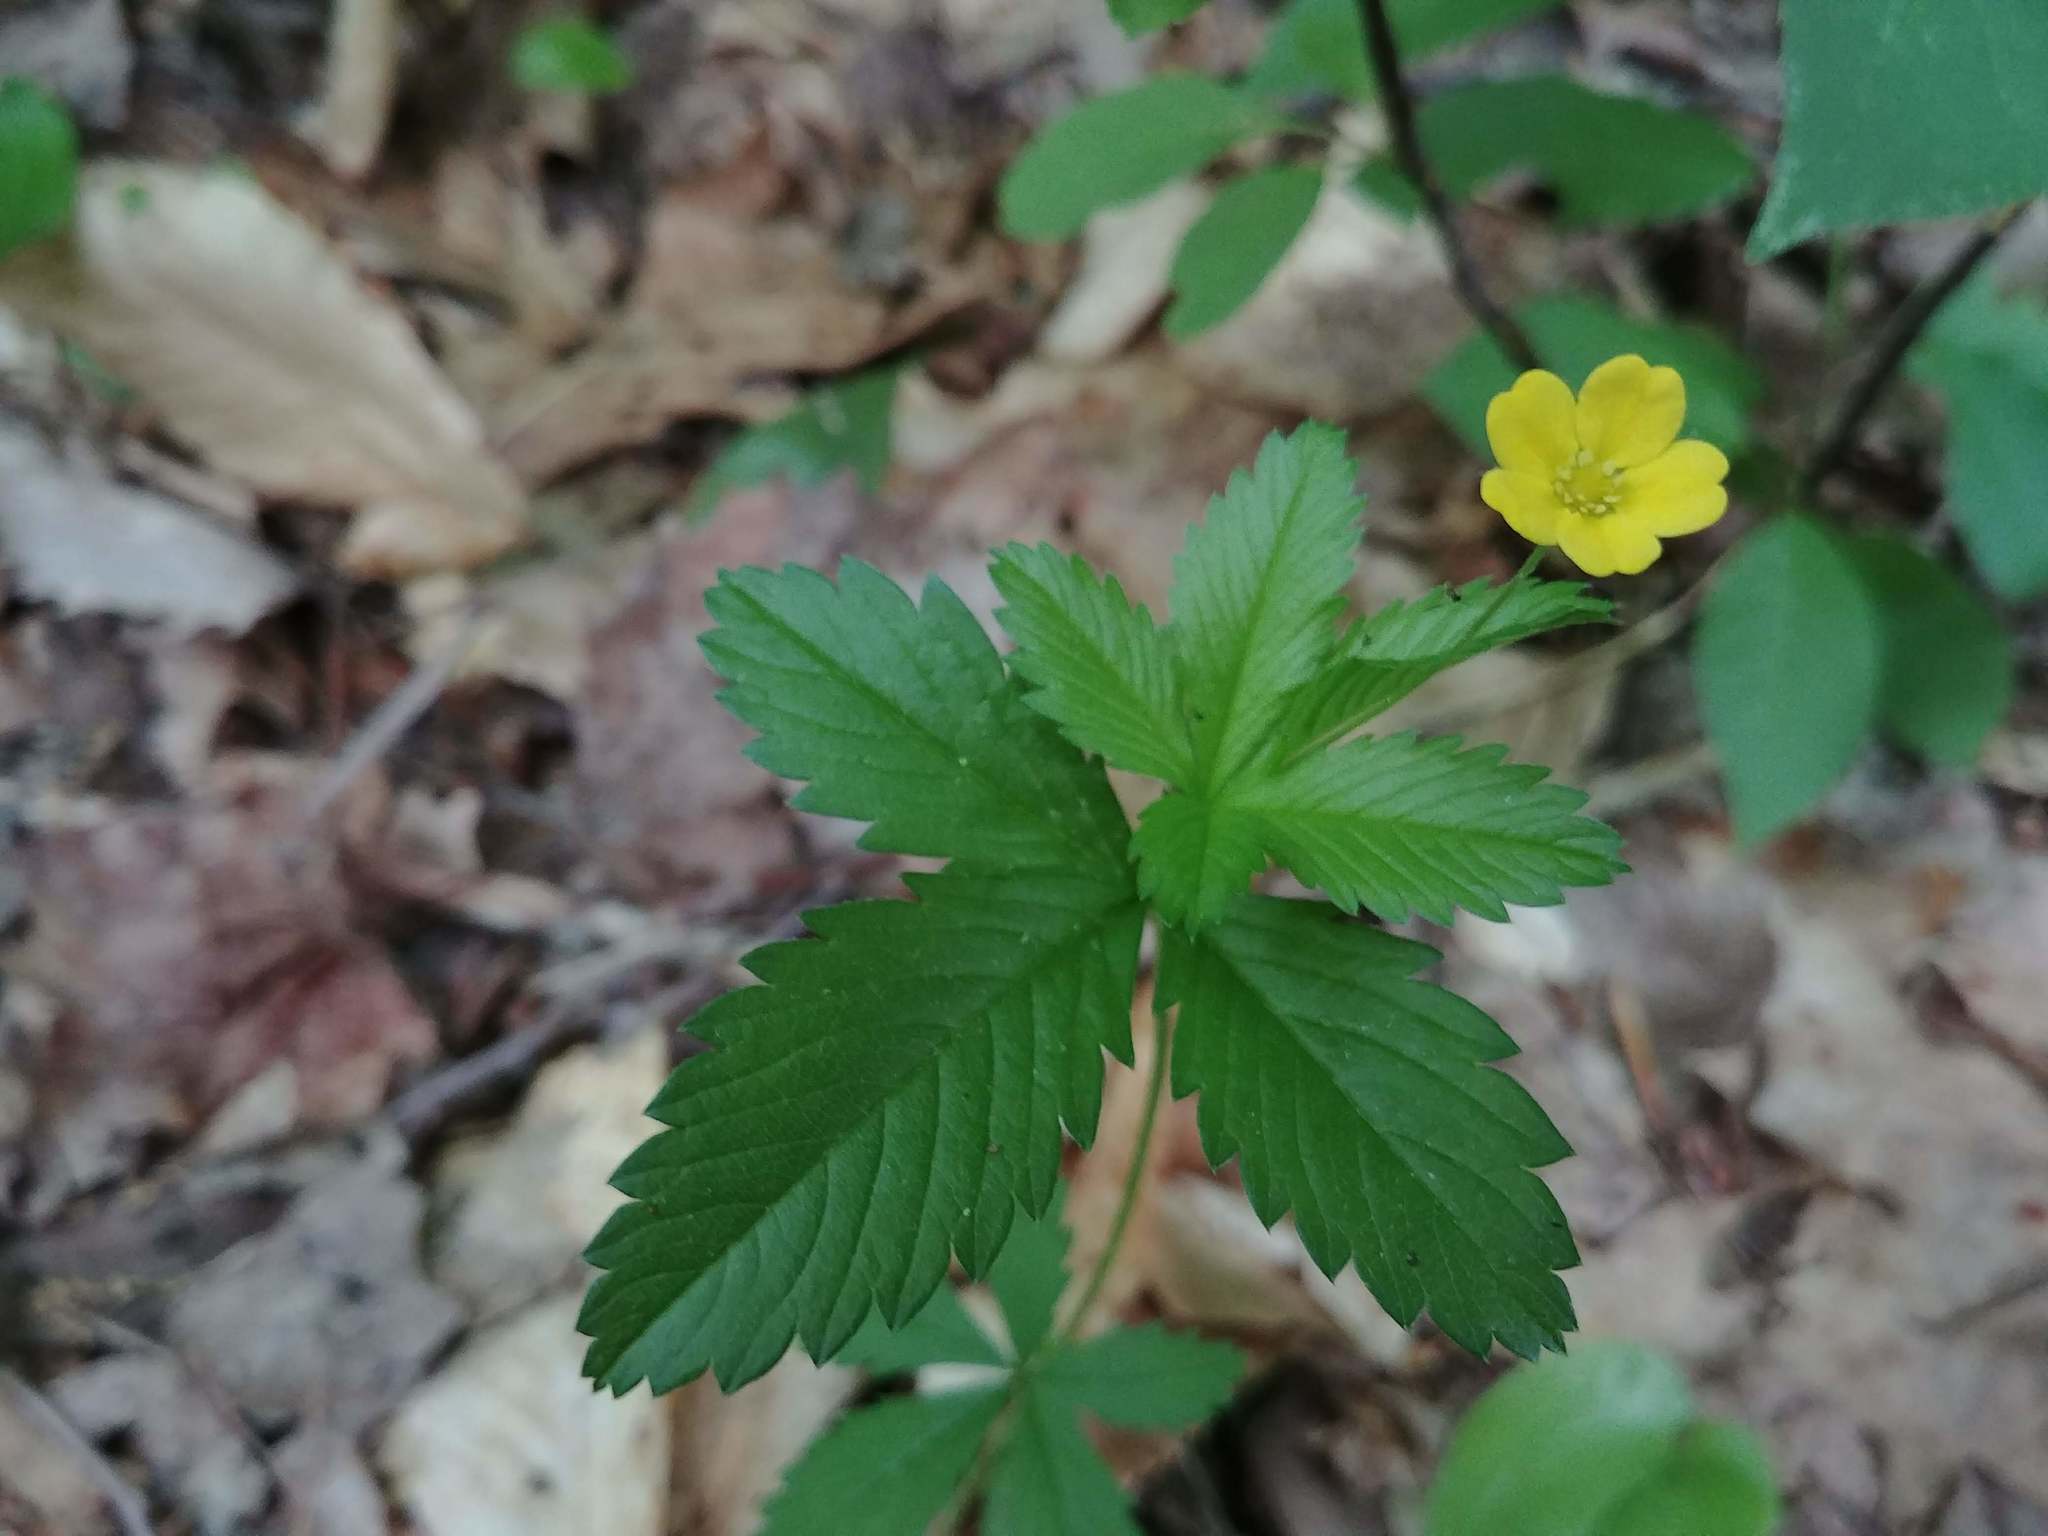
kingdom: Plantae
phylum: Tracheophyta
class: Magnoliopsida
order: Rosales
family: Rosaceae
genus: Potentilla
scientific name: Potentilla simplex
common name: Old field cinquefoil
